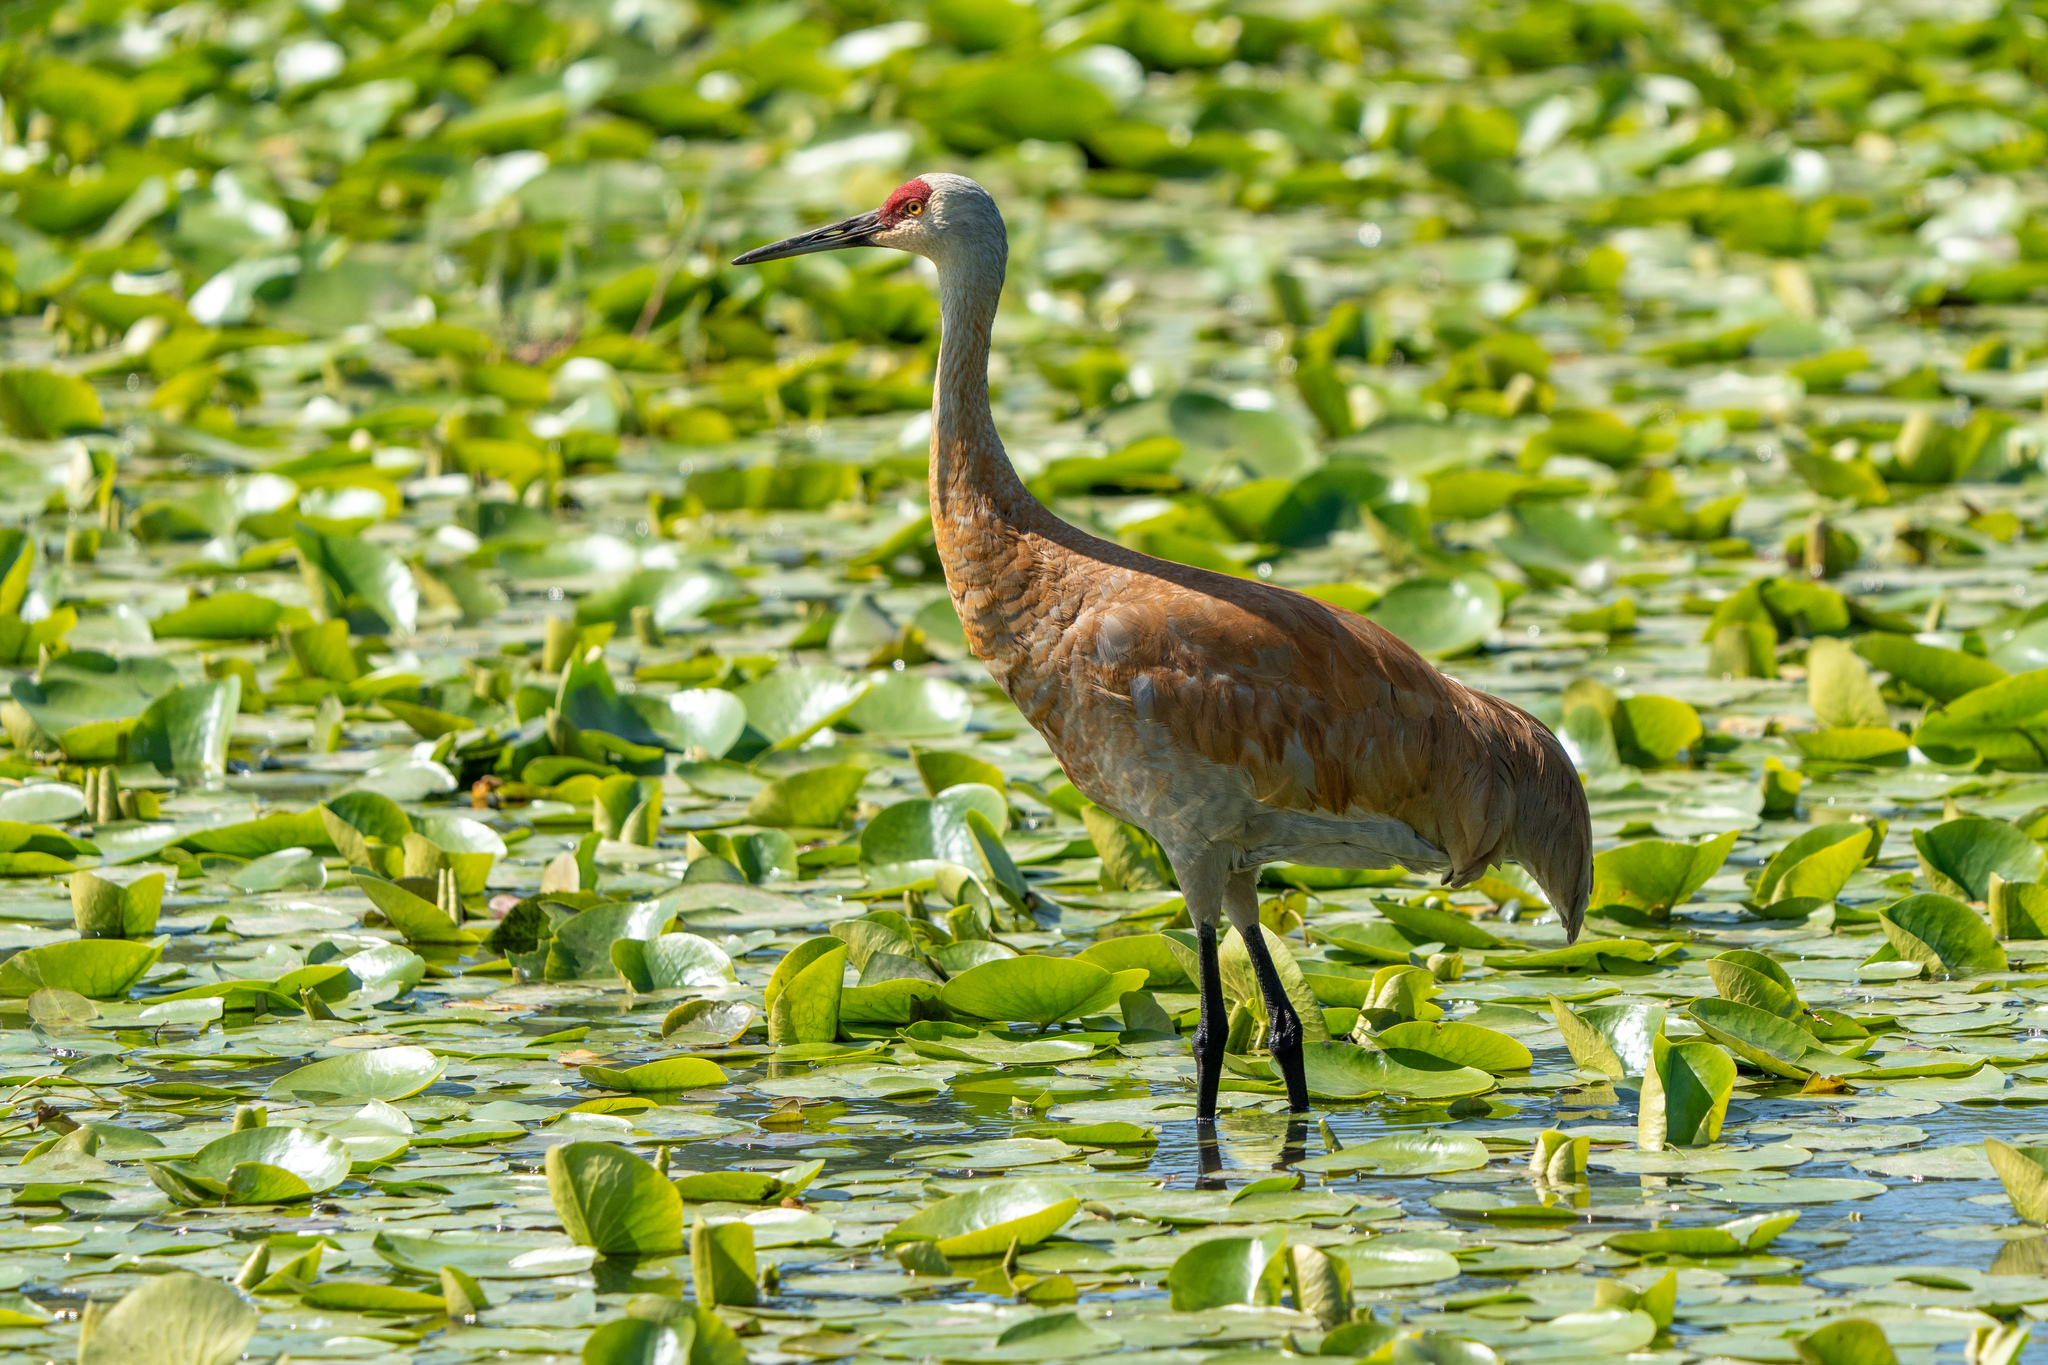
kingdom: Animalia
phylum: Chordata
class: Aves
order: Gruiformes
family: Gruidae
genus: Grus
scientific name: Grus canadensis
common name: Sandhill crane
